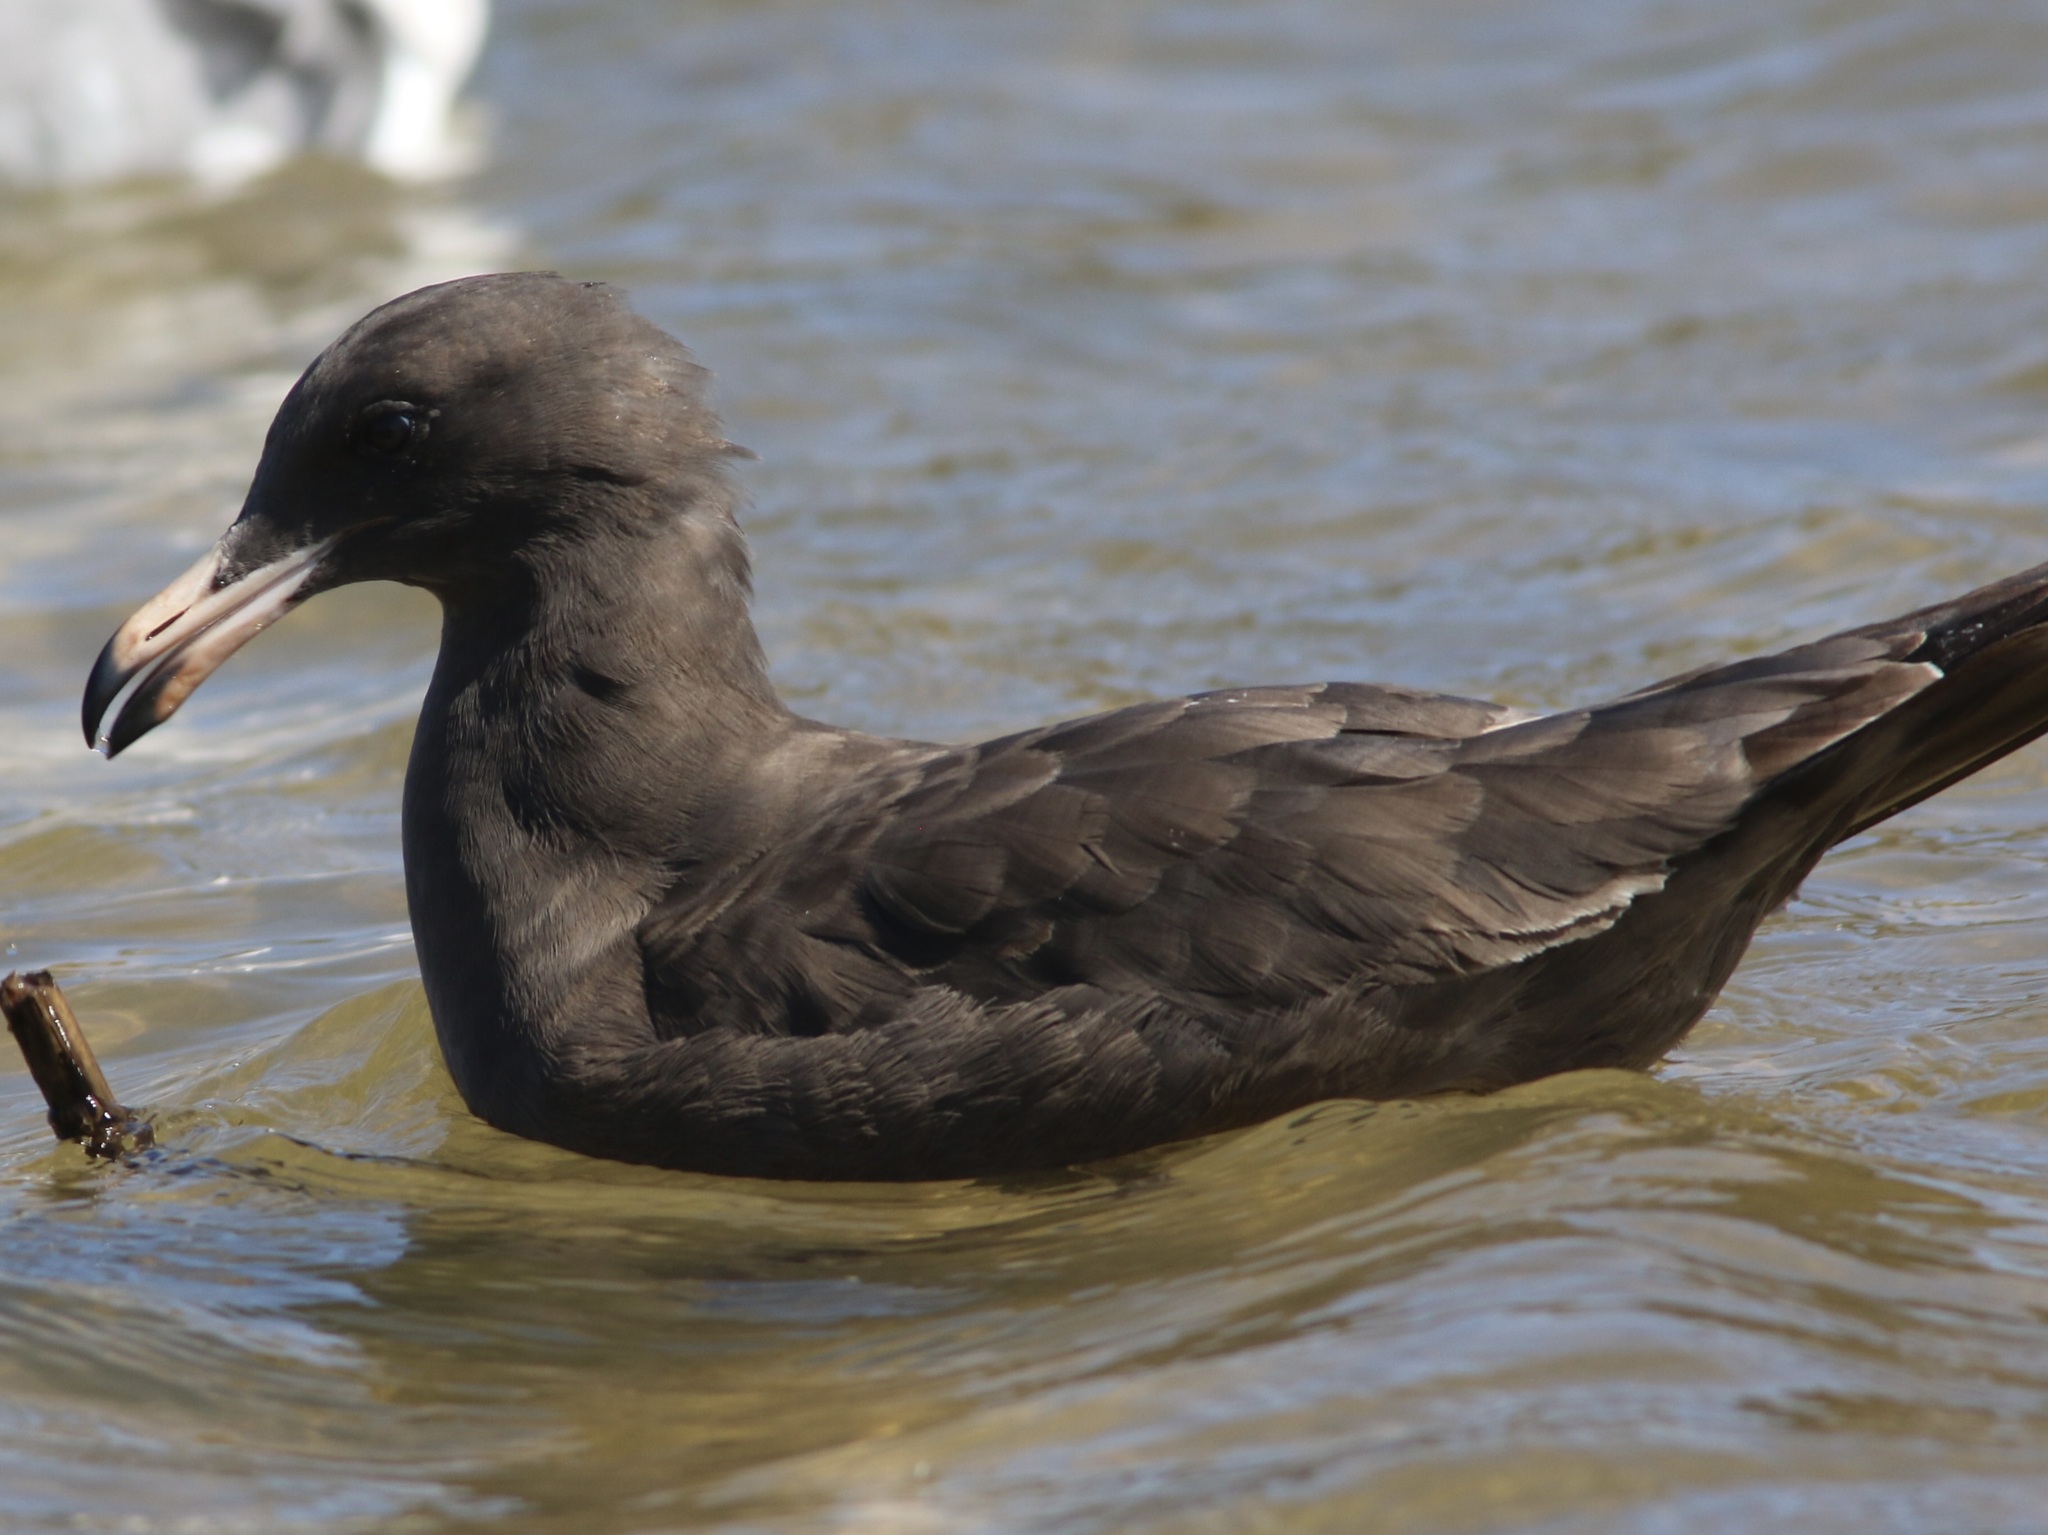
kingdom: Animalia
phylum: Chordata
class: Aves
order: Charadriiformes
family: Laridae
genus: Larus
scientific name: Larus heermanni
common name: Heermann's gull
